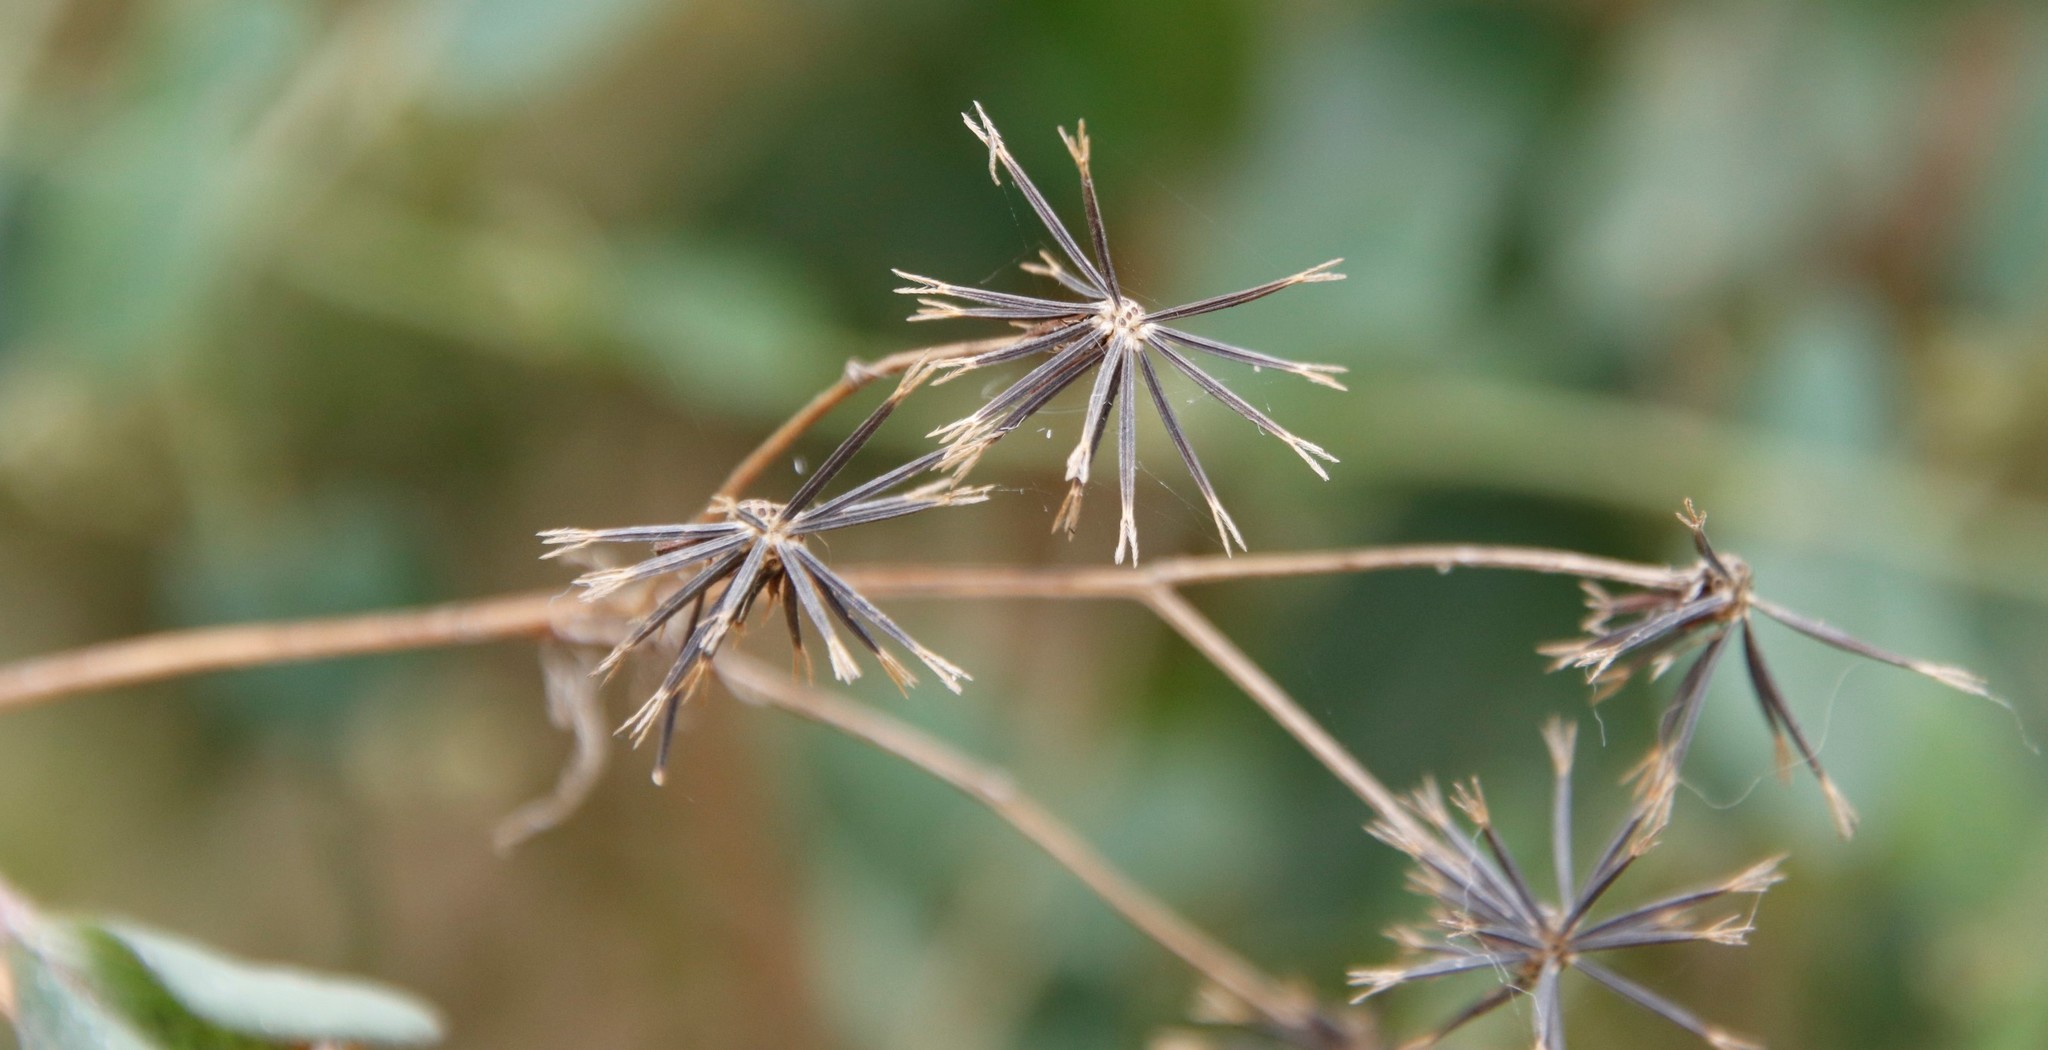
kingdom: Plantae
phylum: Tracheophyta
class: Magnoliopsida
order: Asterales
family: Asteraceae
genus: Bidens
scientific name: Bidens pilosa
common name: Black-jack
